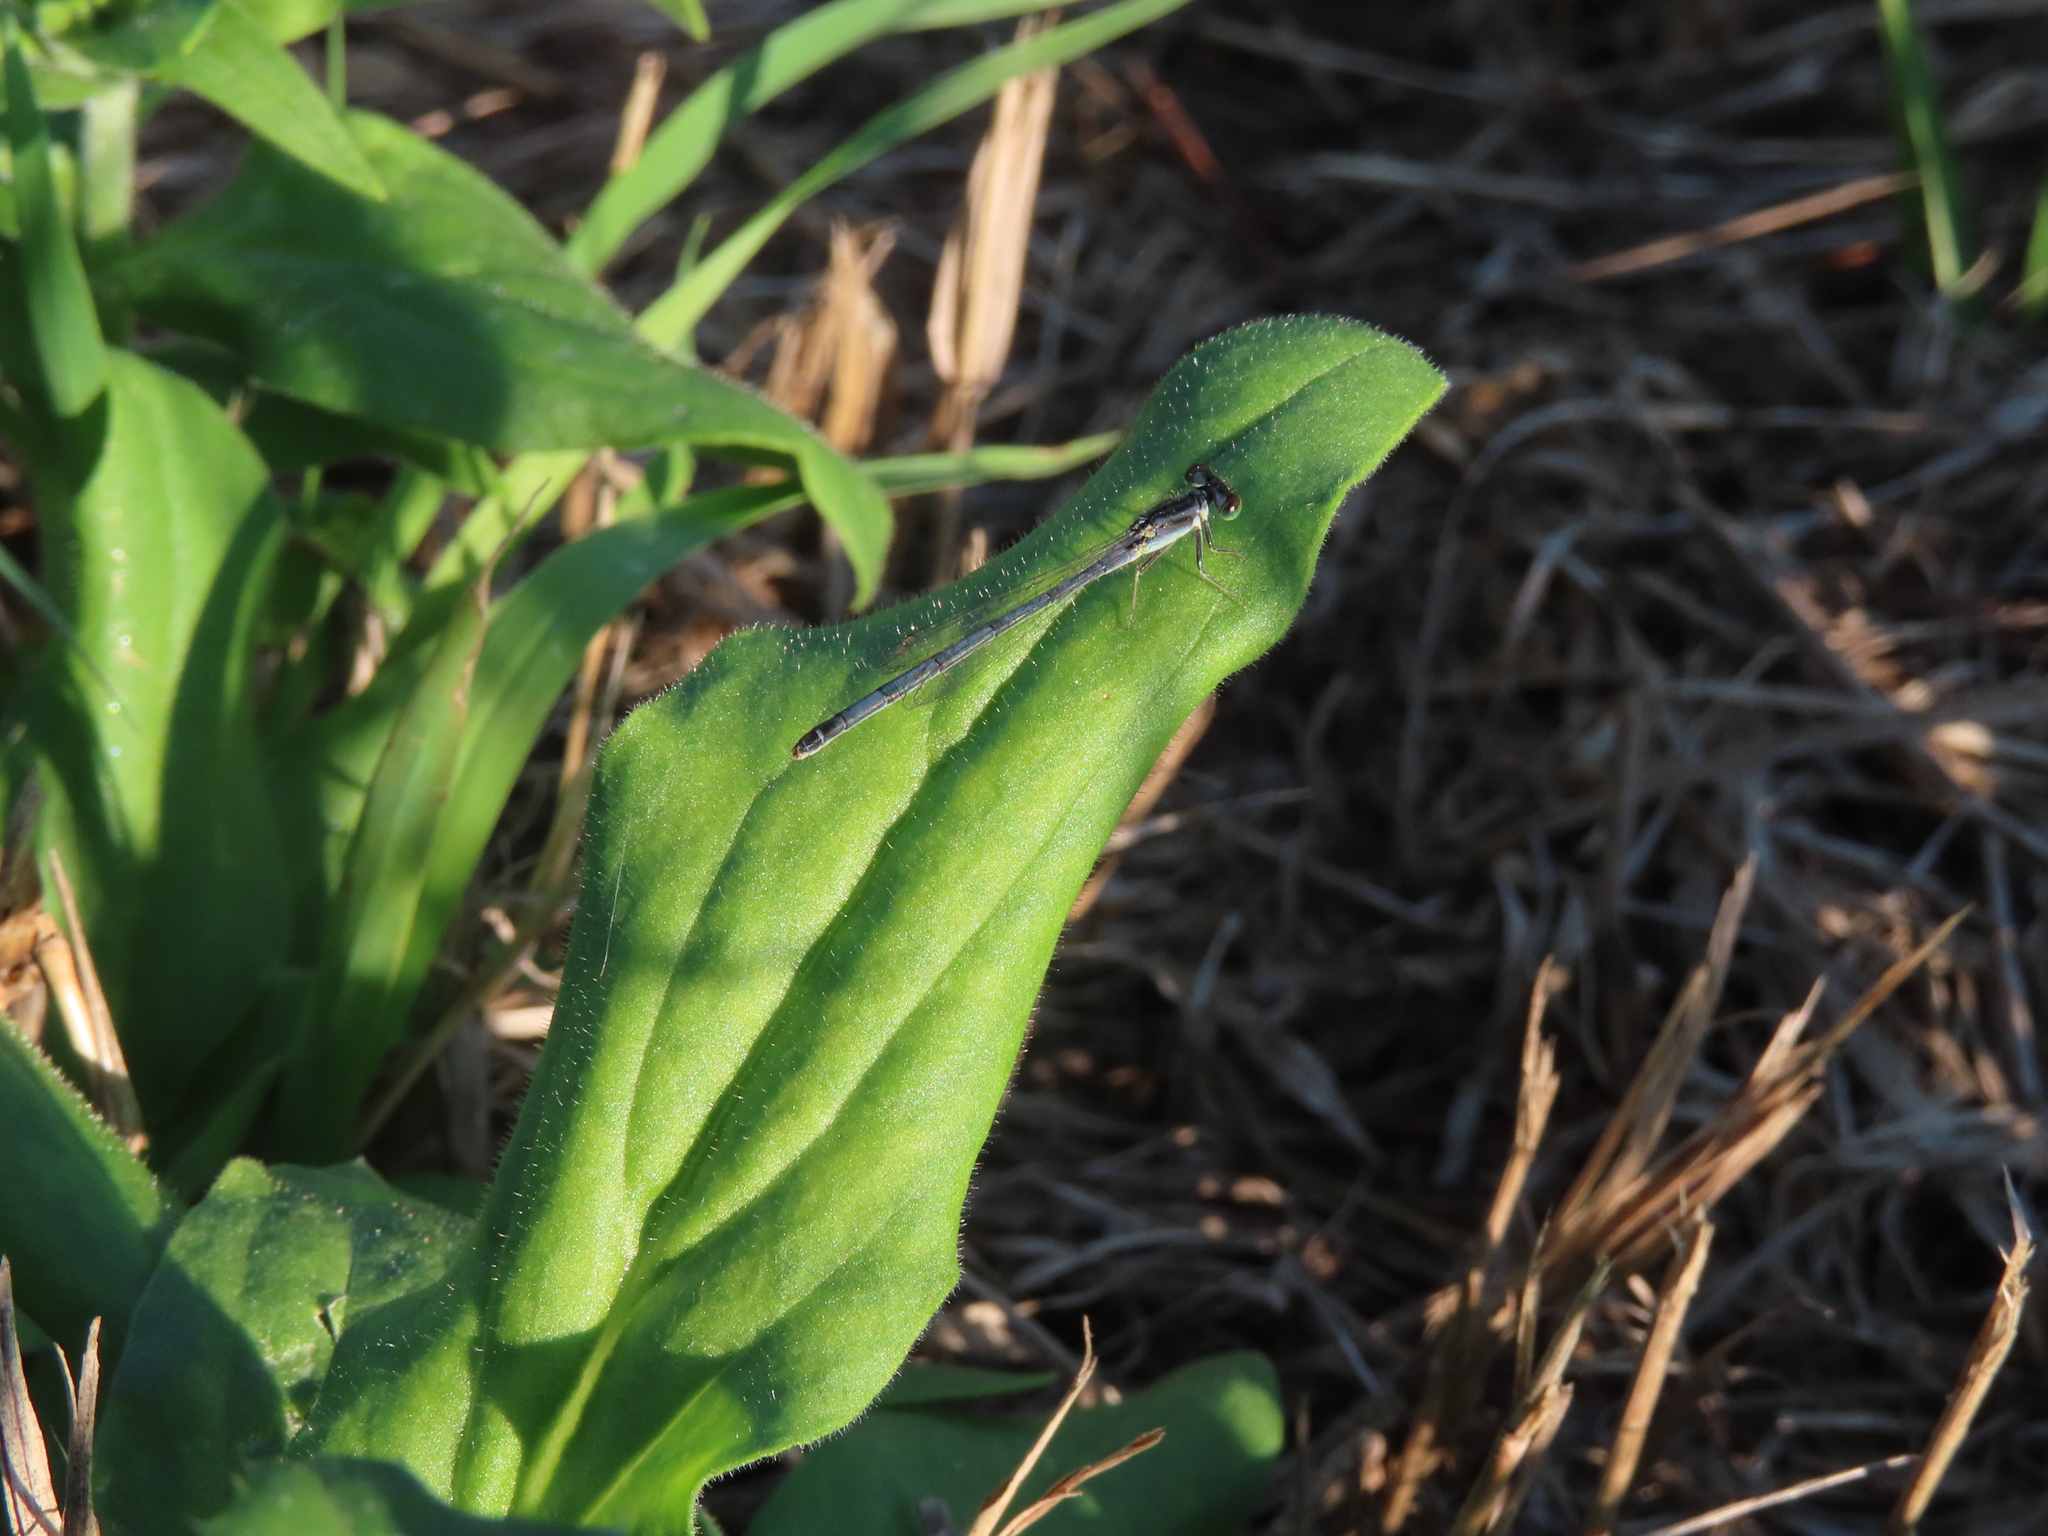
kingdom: Animalia
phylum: Arthropoda
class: Insecta
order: Odonata
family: Coenagrionidae
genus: Ischnura
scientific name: Ischnura verticalis
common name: Eastern forktail
